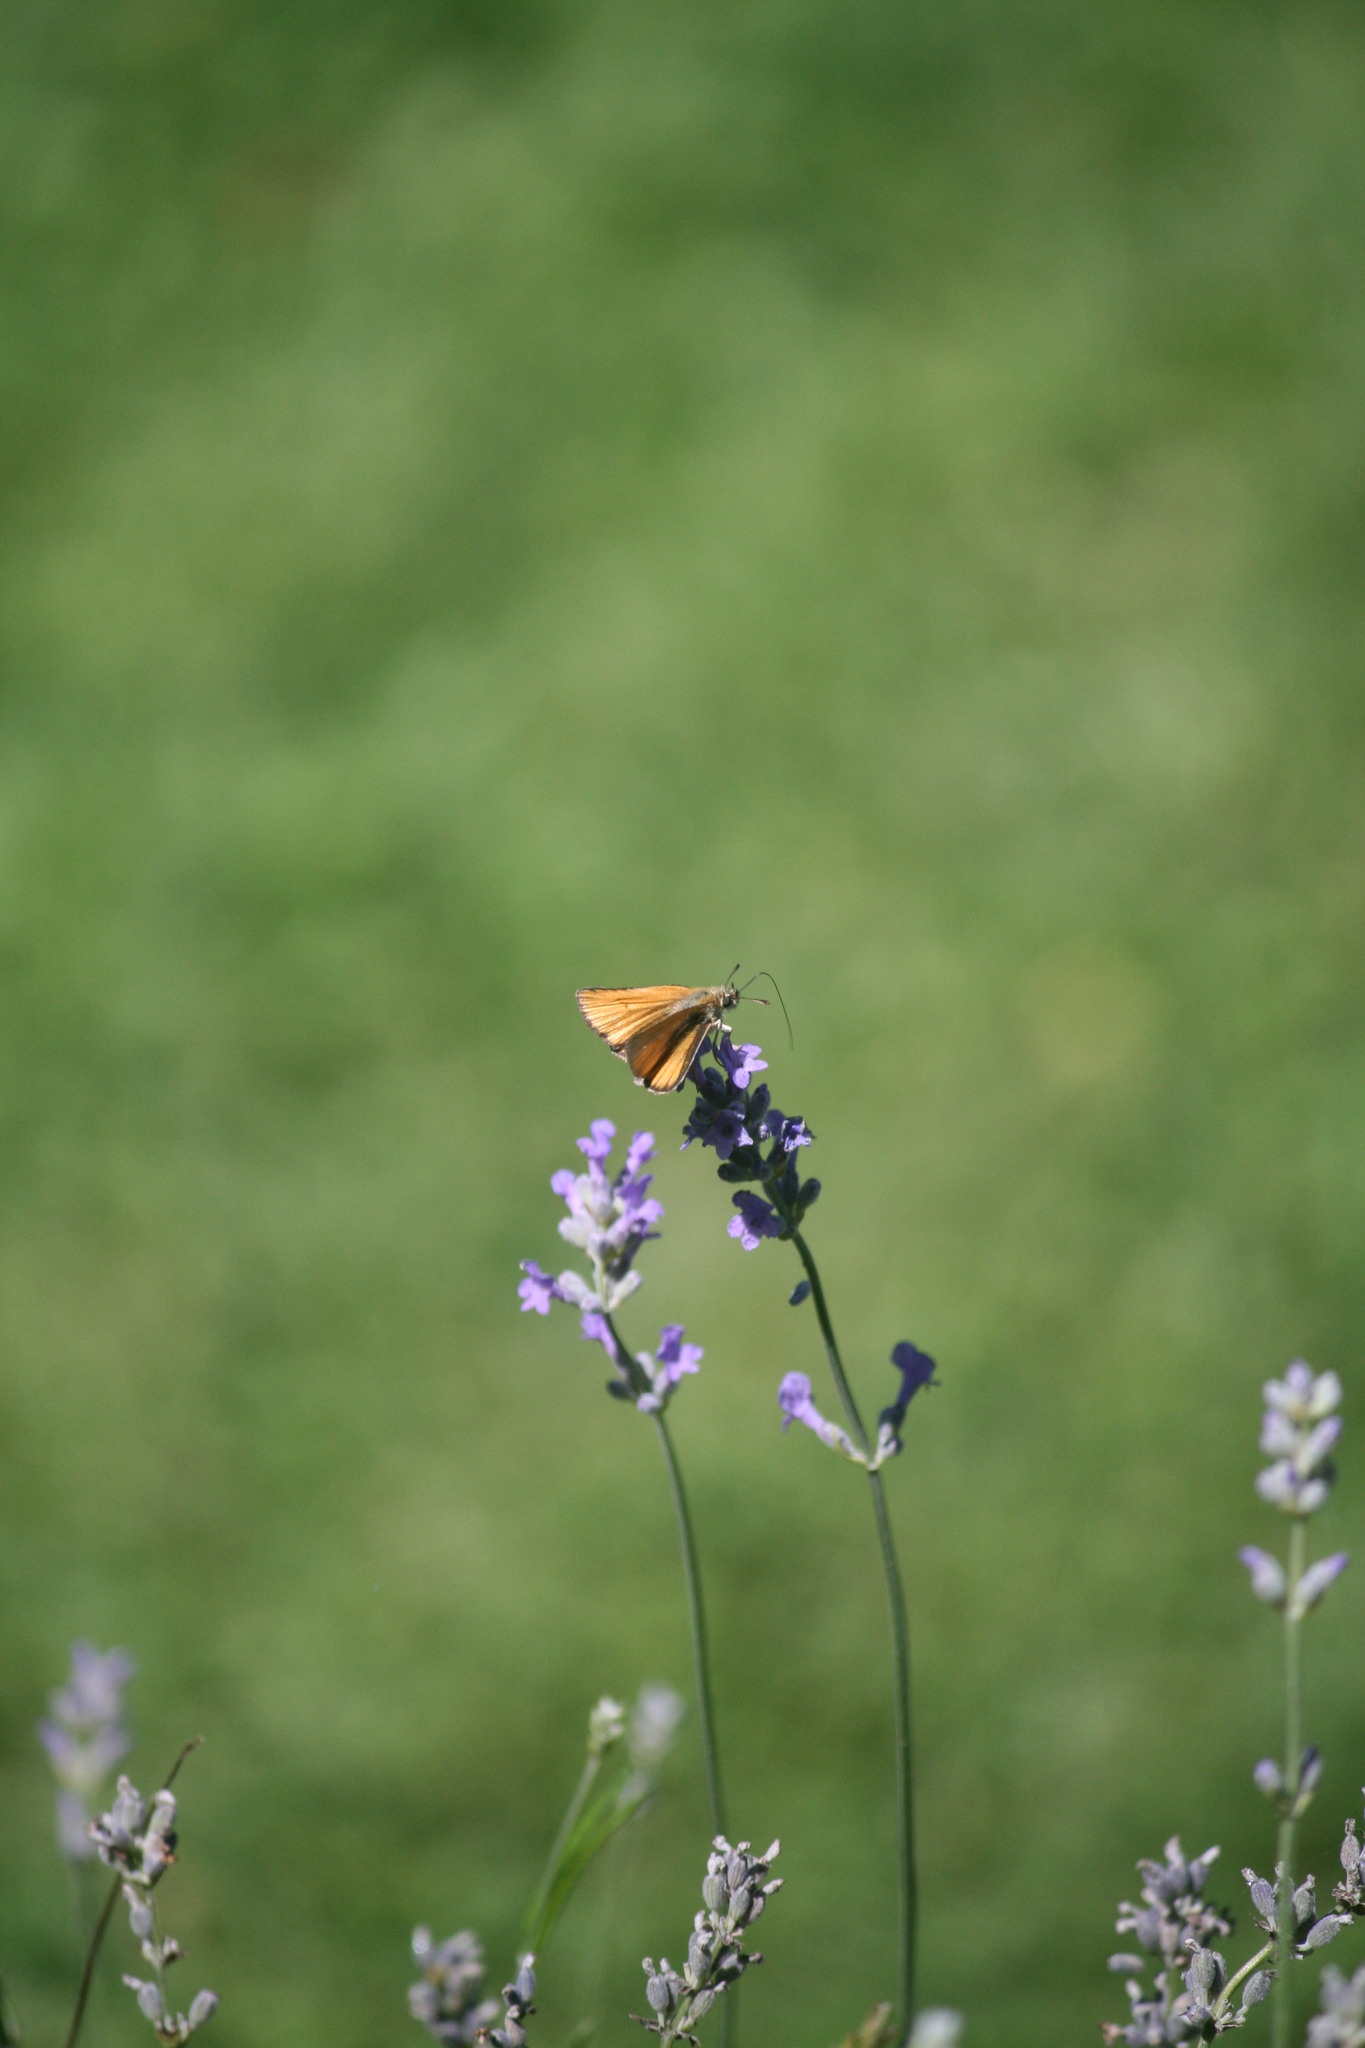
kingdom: Animalia
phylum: Arthropoda
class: Insecta
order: Lepidoptera
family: Hesperiidae
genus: Thymelicus
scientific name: Thymelicus lineola
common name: Essex skipper
